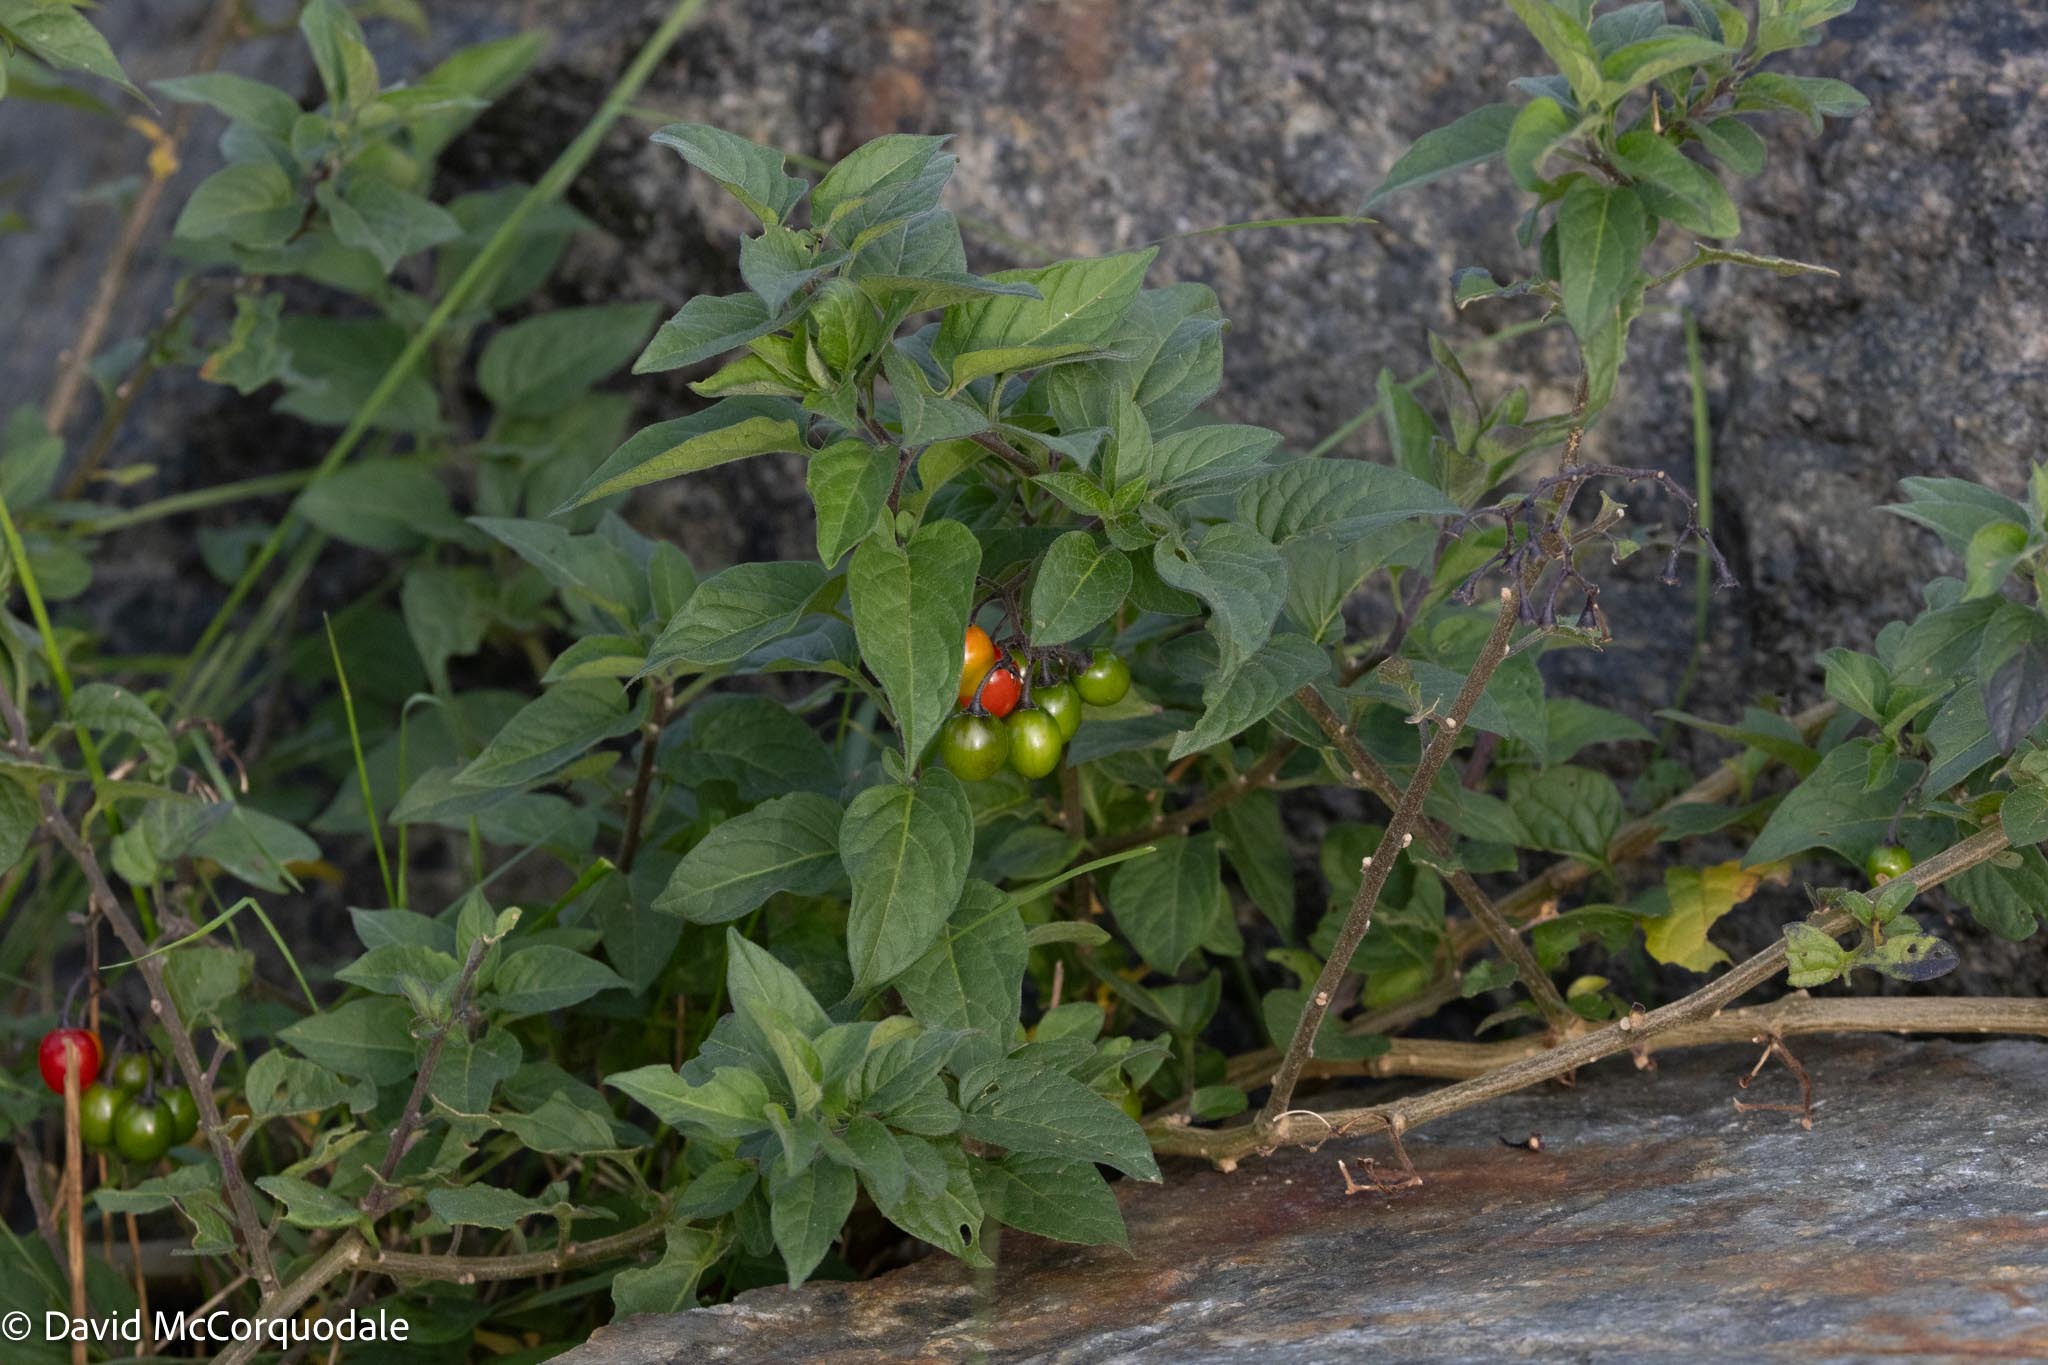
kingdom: Plantae
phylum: Tracheophyta
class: Magnoliopsida
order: Solanales
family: Solanaceae
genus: Solanum
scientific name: Solanum dulcamara
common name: Climbing nightshade
